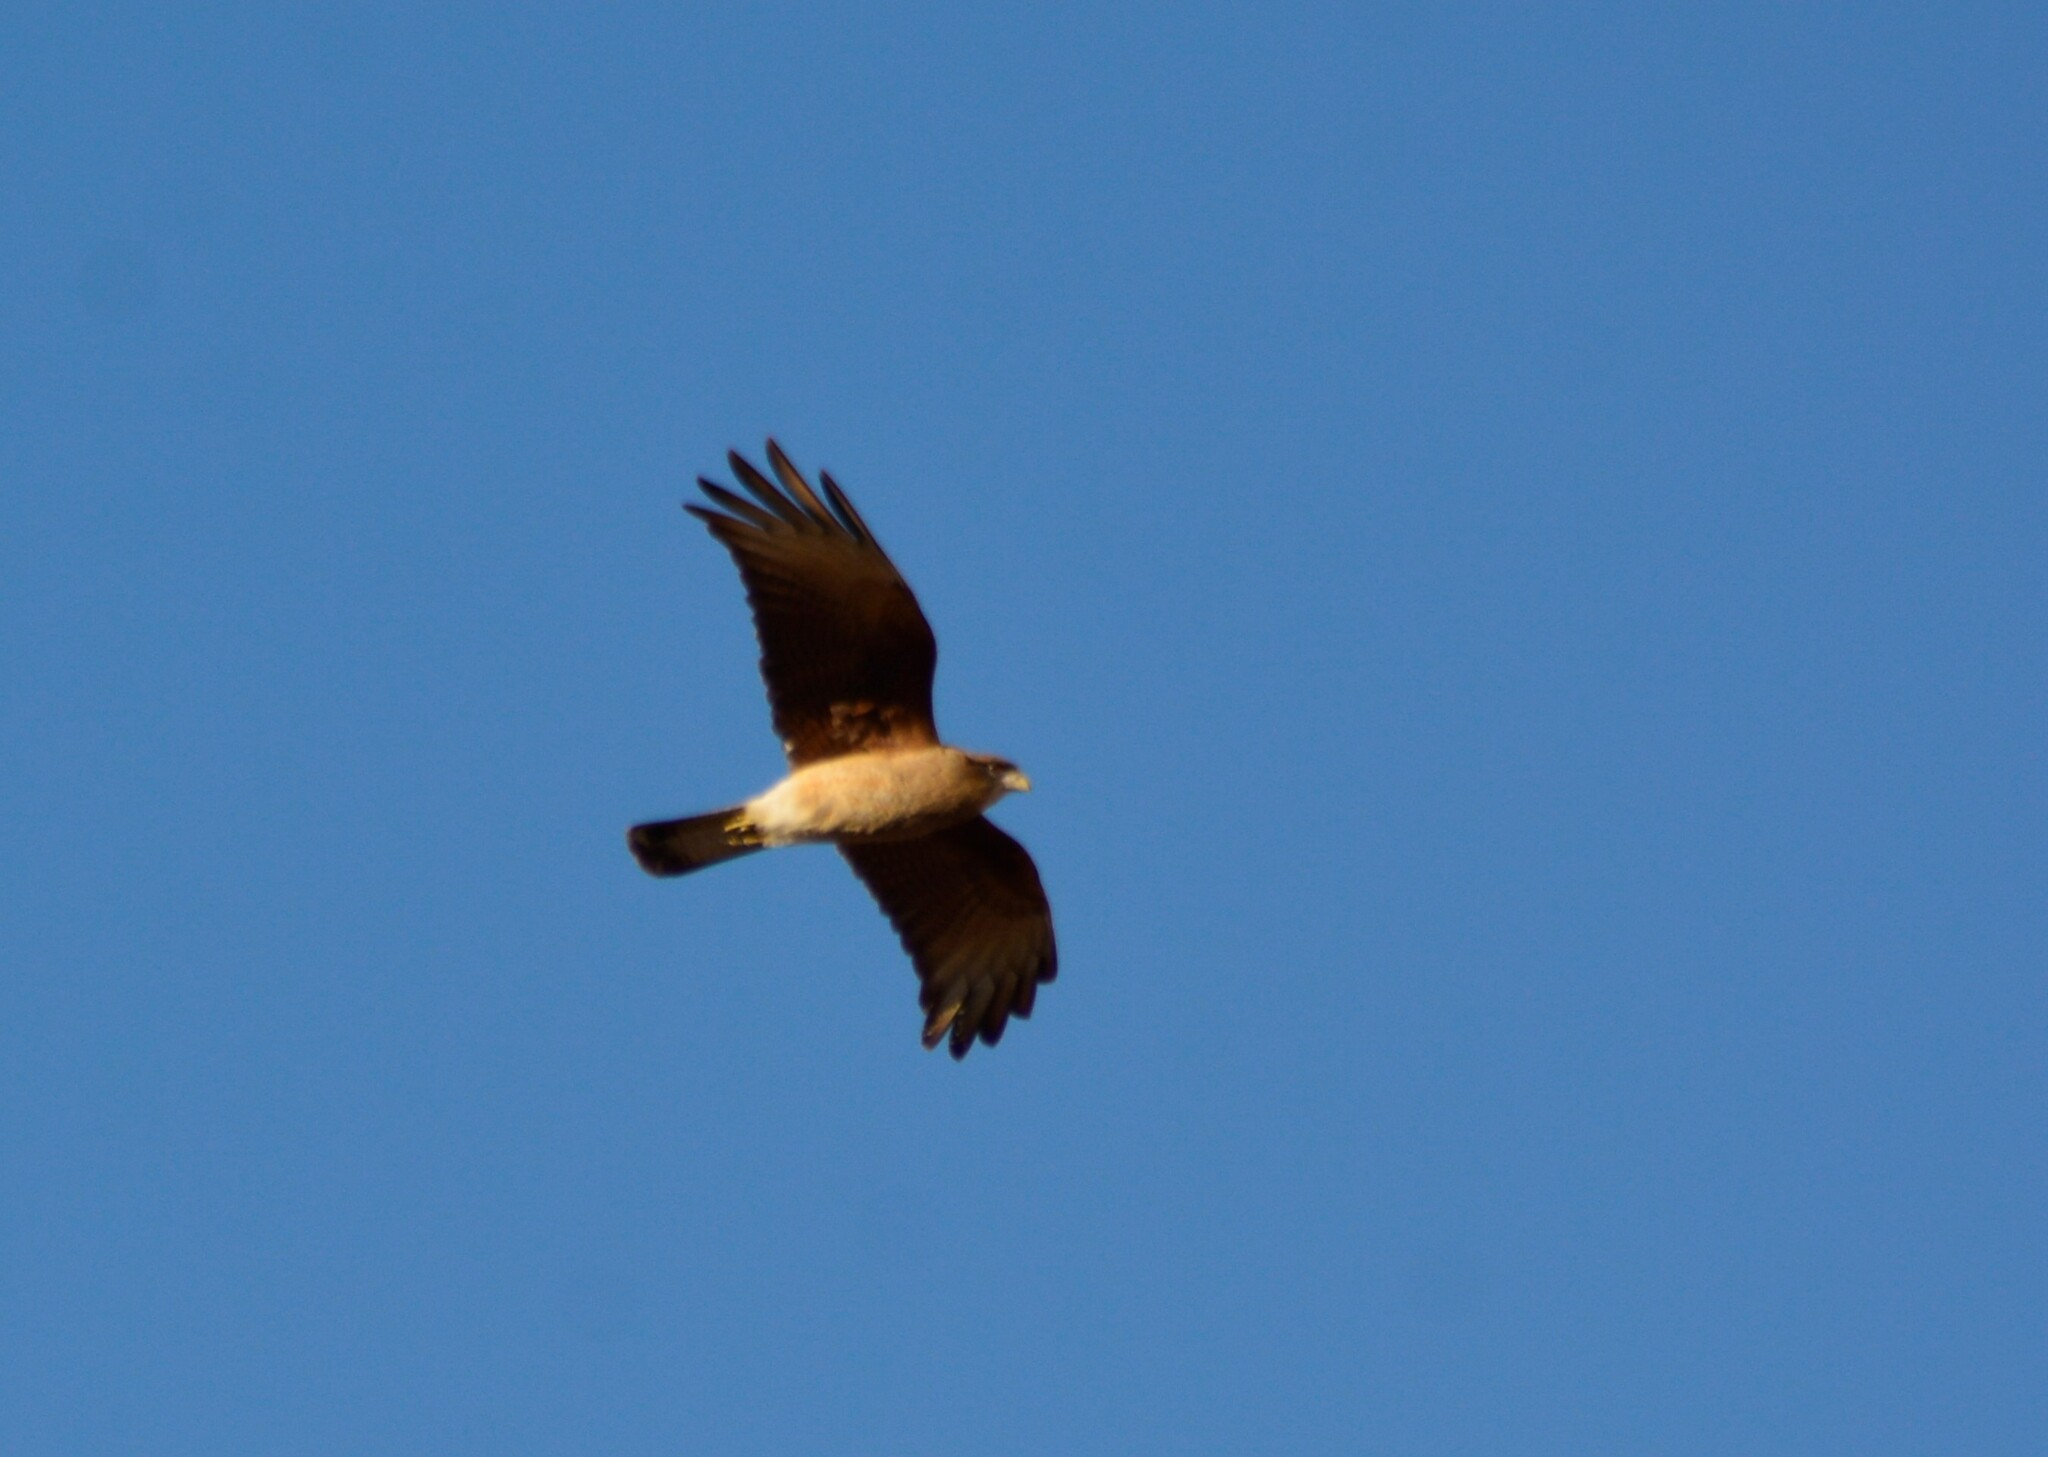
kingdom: Animalia
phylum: Chordata
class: Aves
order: Falconiformes
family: Falconidae
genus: Daptrius
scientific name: Daptrius
